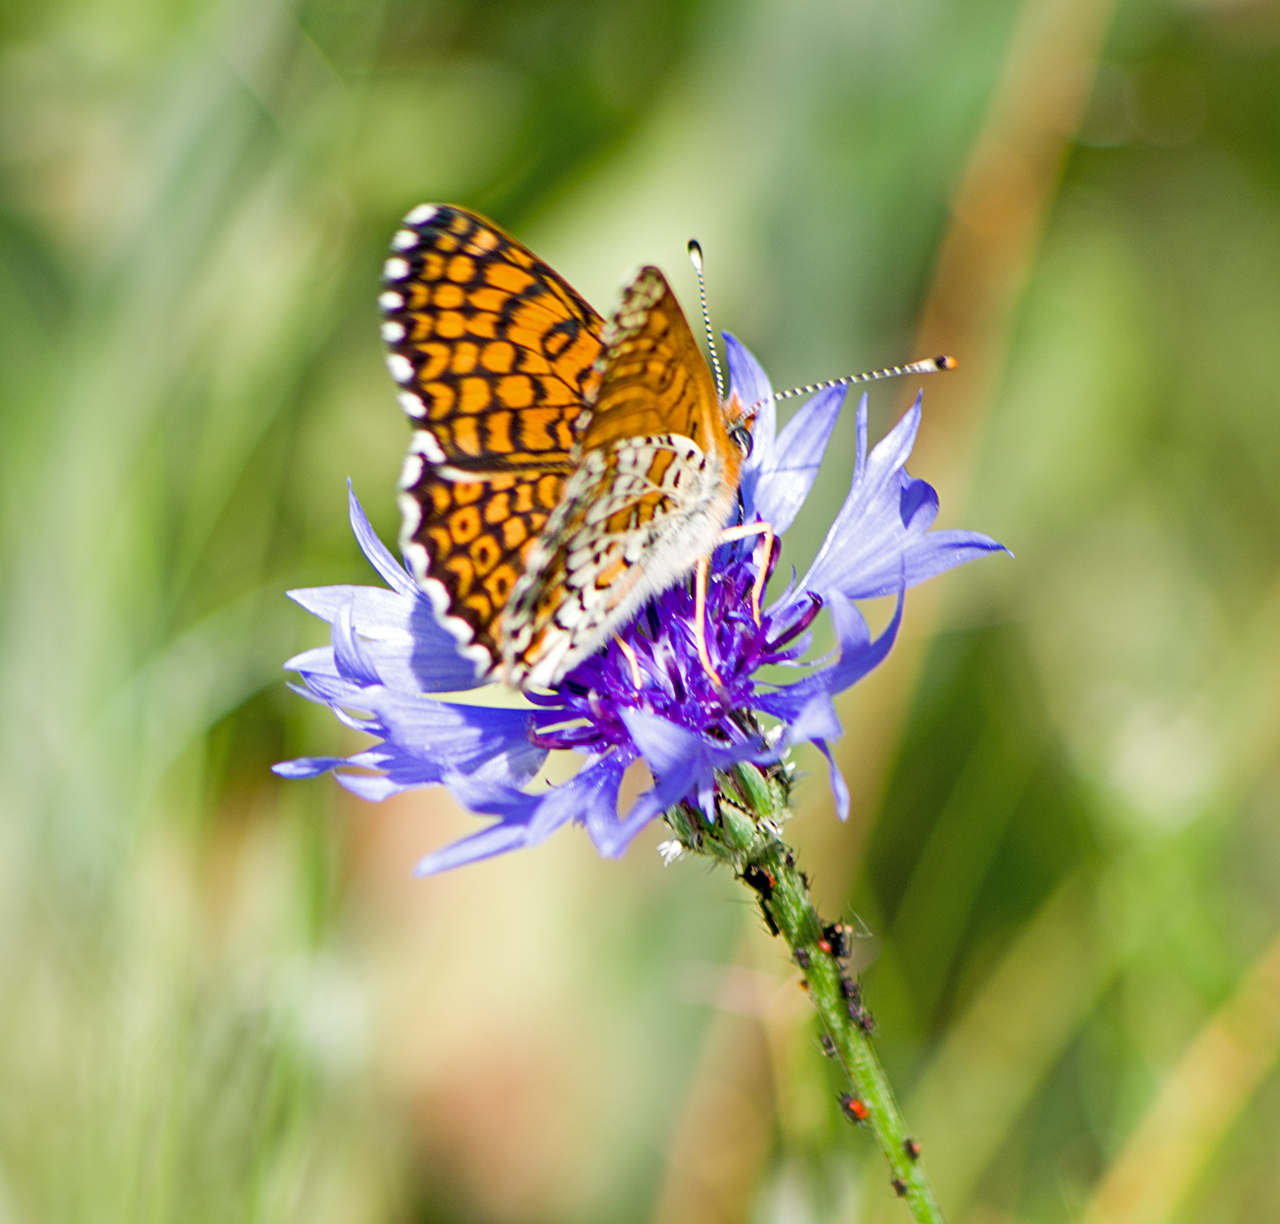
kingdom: Animalia
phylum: Arthropoda
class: Insecta
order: Lepidoptera
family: Nymphalidae
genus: Melitaea
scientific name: Melitaea cinxia
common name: Glanville fritillary
